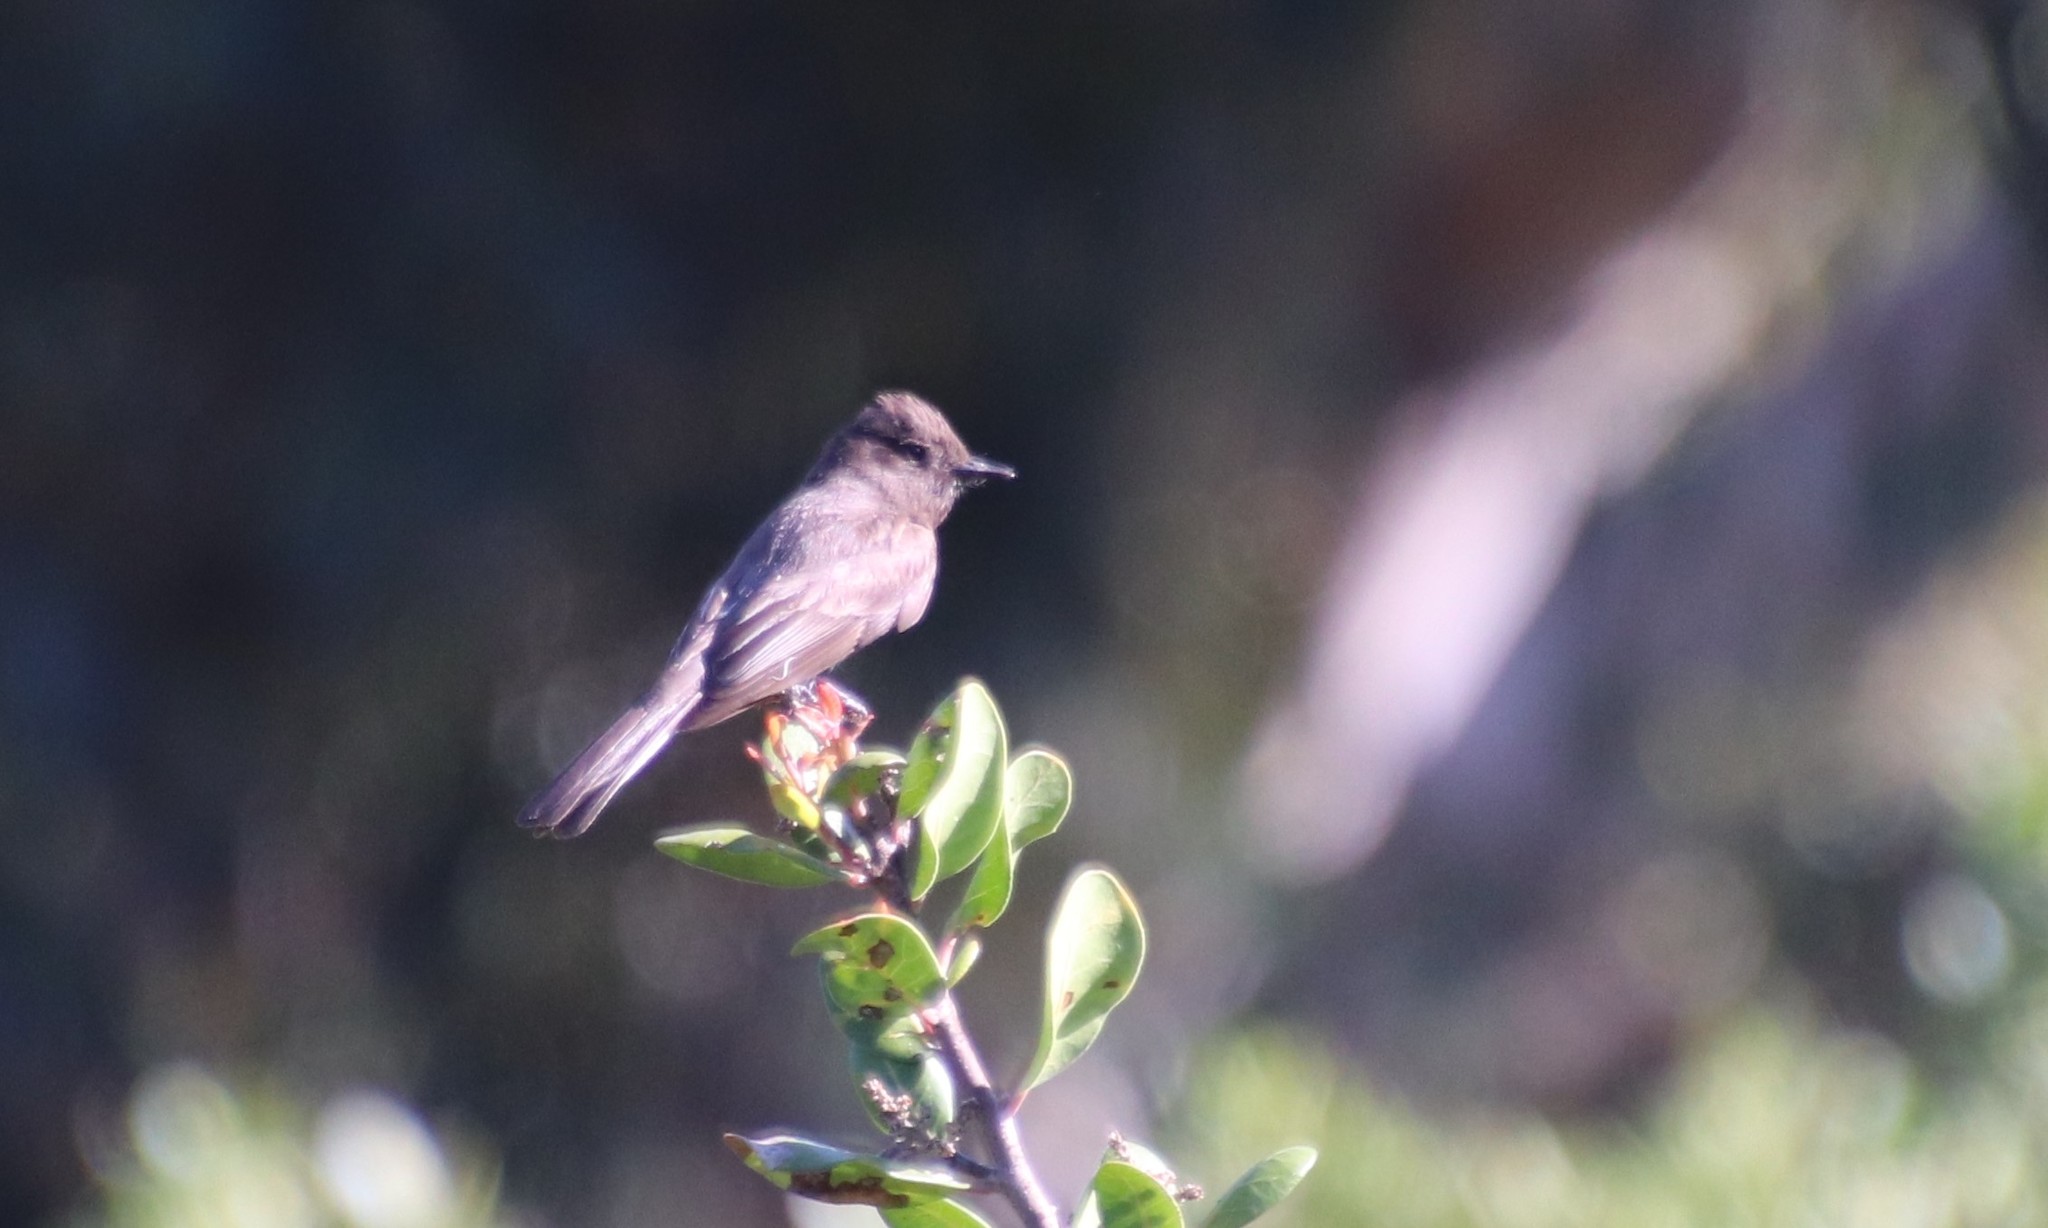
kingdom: Animalia
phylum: Chordata
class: Aves
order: Passeriformes
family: Tyrannidae
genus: Sayornis
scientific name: Sayornis nigricans
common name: Black phoebe
